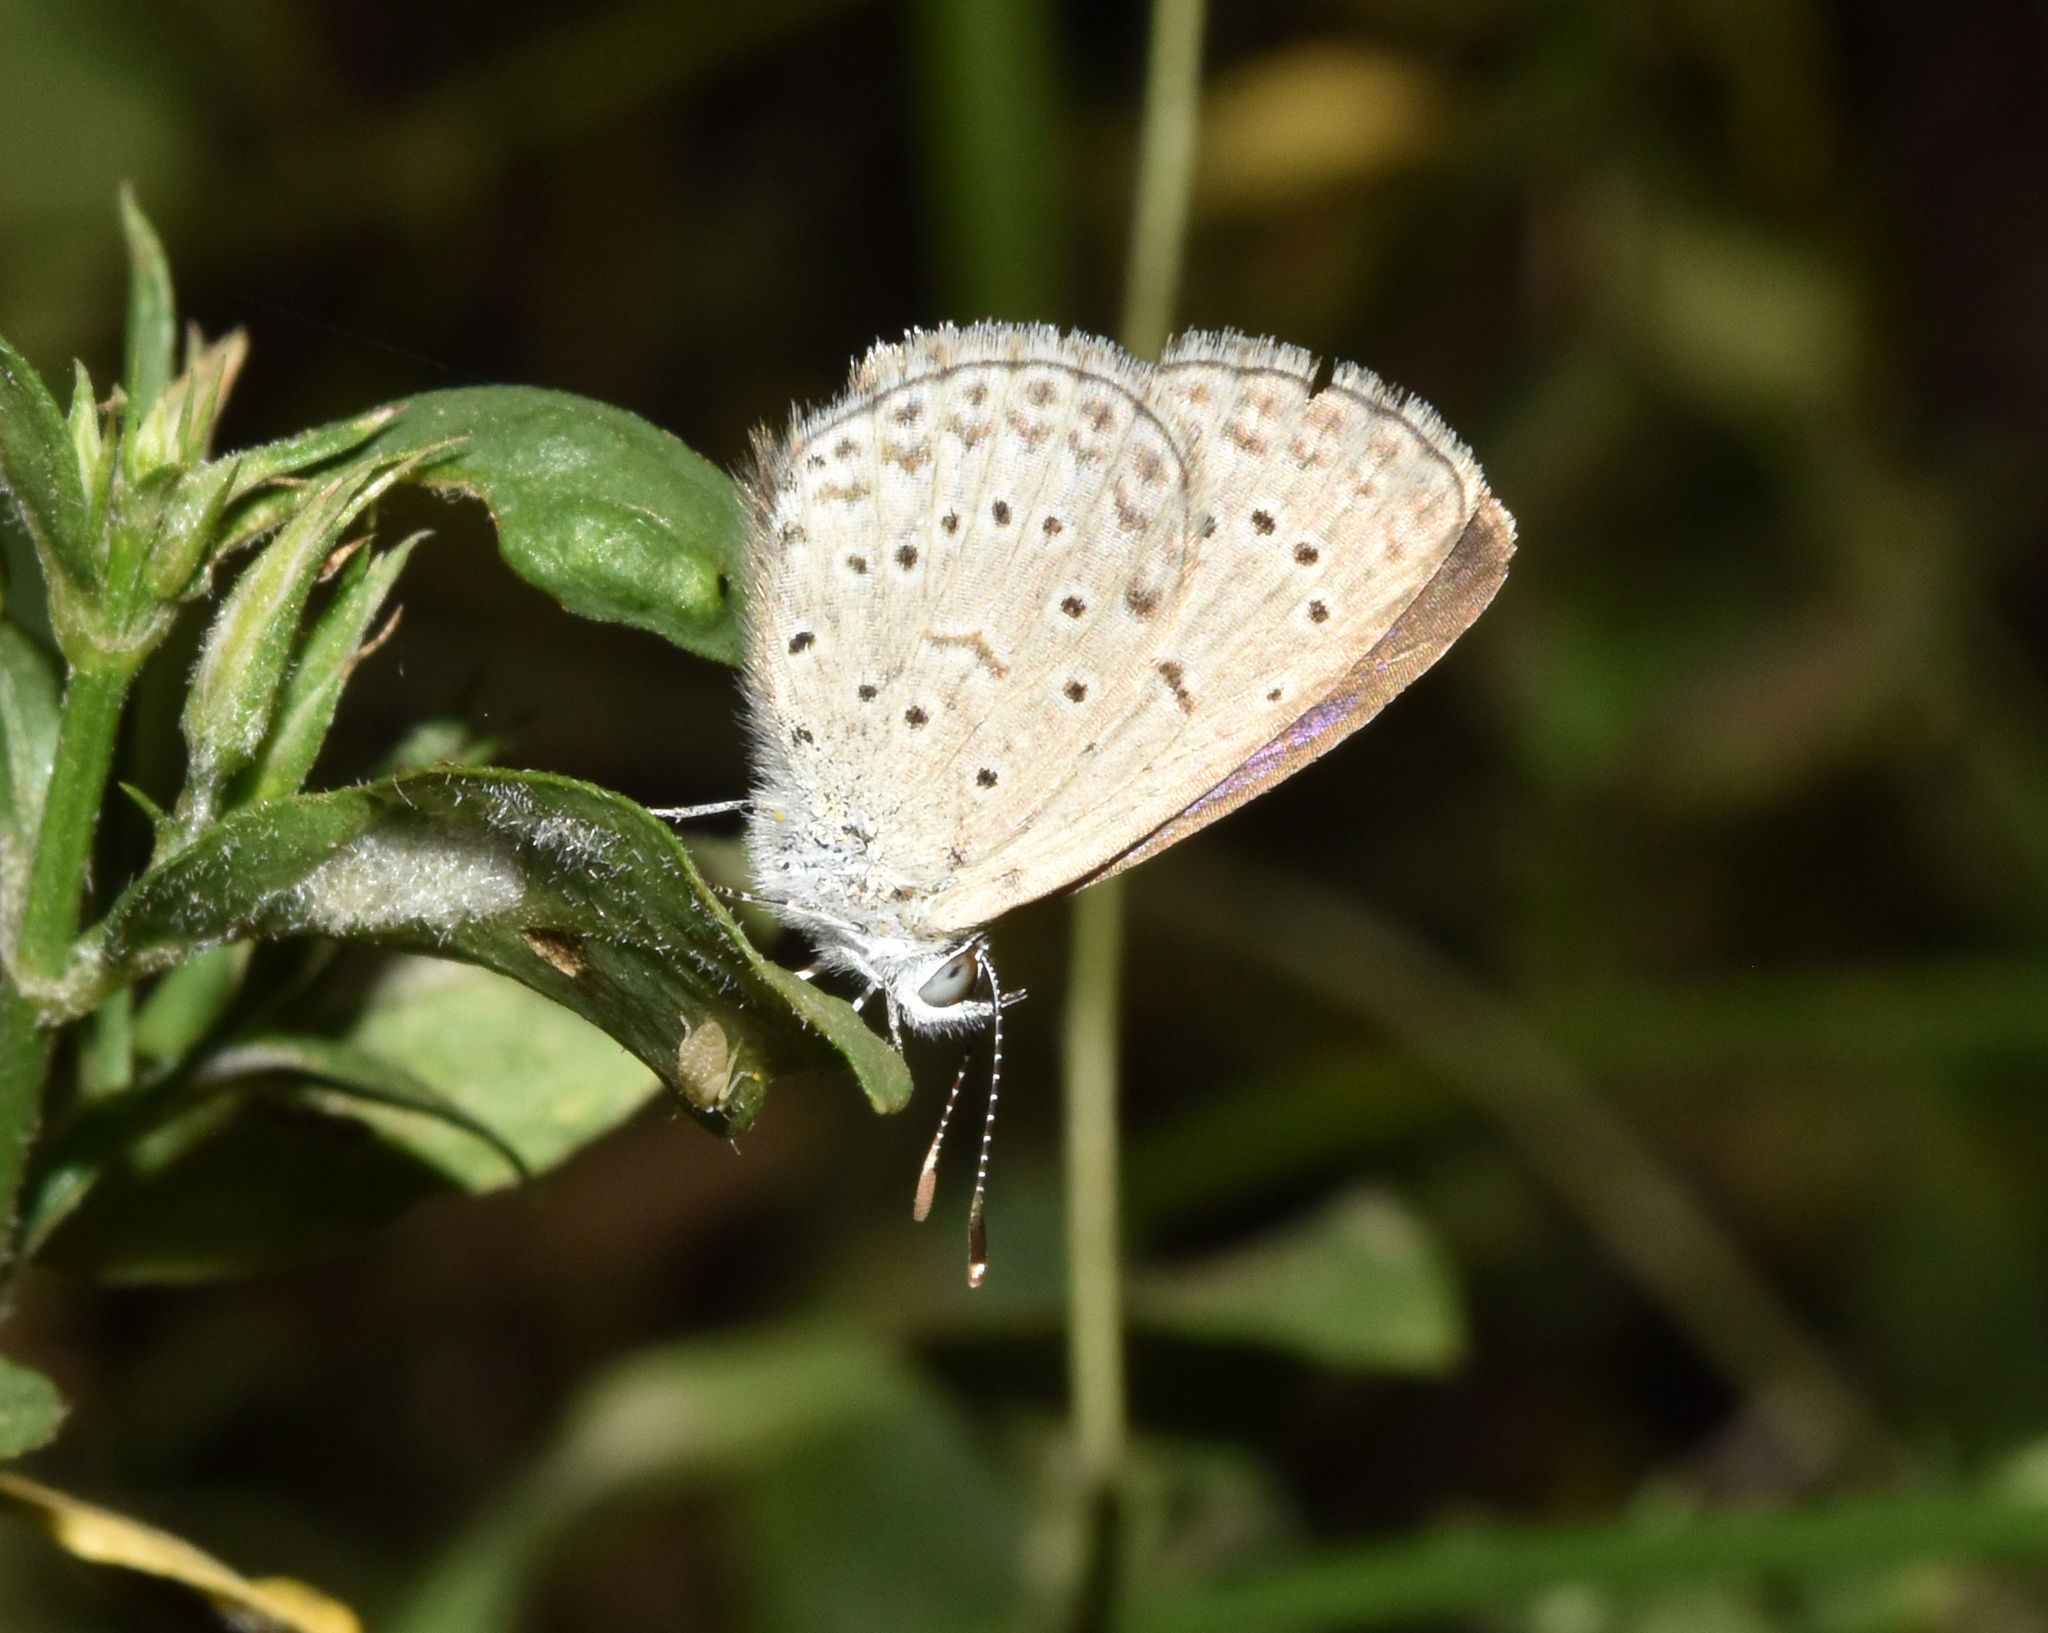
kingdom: Animalia
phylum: Arthropoda
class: Insecta
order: Lepidoptera
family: Lycaenidae
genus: Zizeeria
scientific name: Zizeeria knysna
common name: African grass blue
